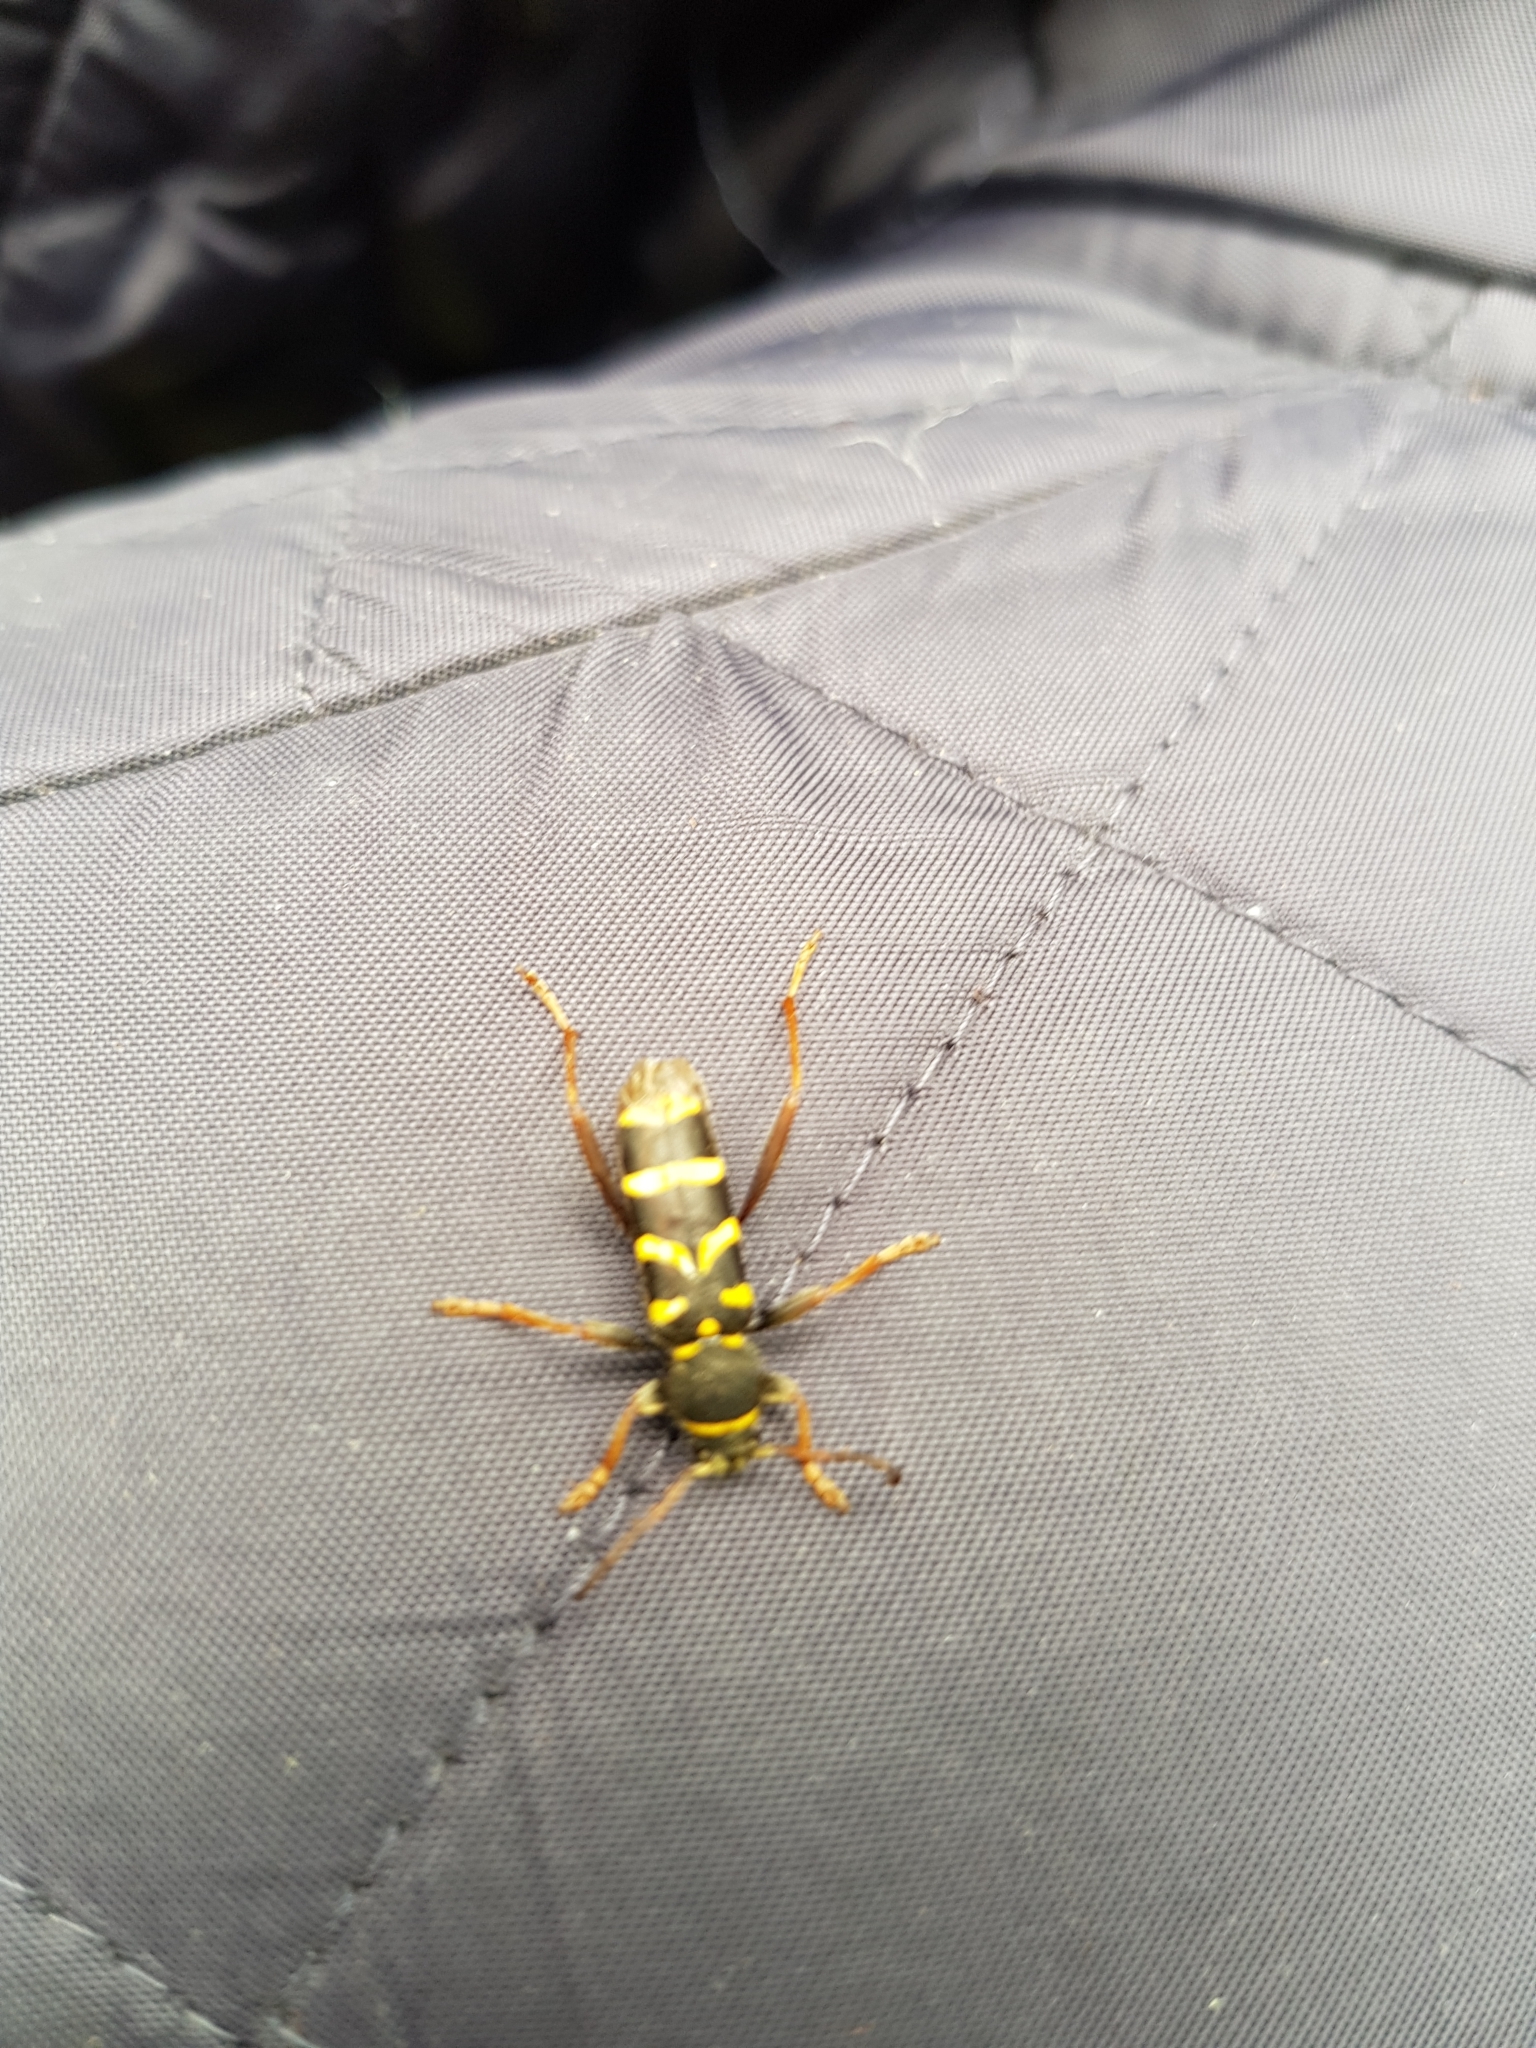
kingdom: Animalia
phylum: Arthropoda
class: Insecta
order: Coleoptera
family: Cerambycidae
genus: Clytus
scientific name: Clytus arietis
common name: Wasp beetle
